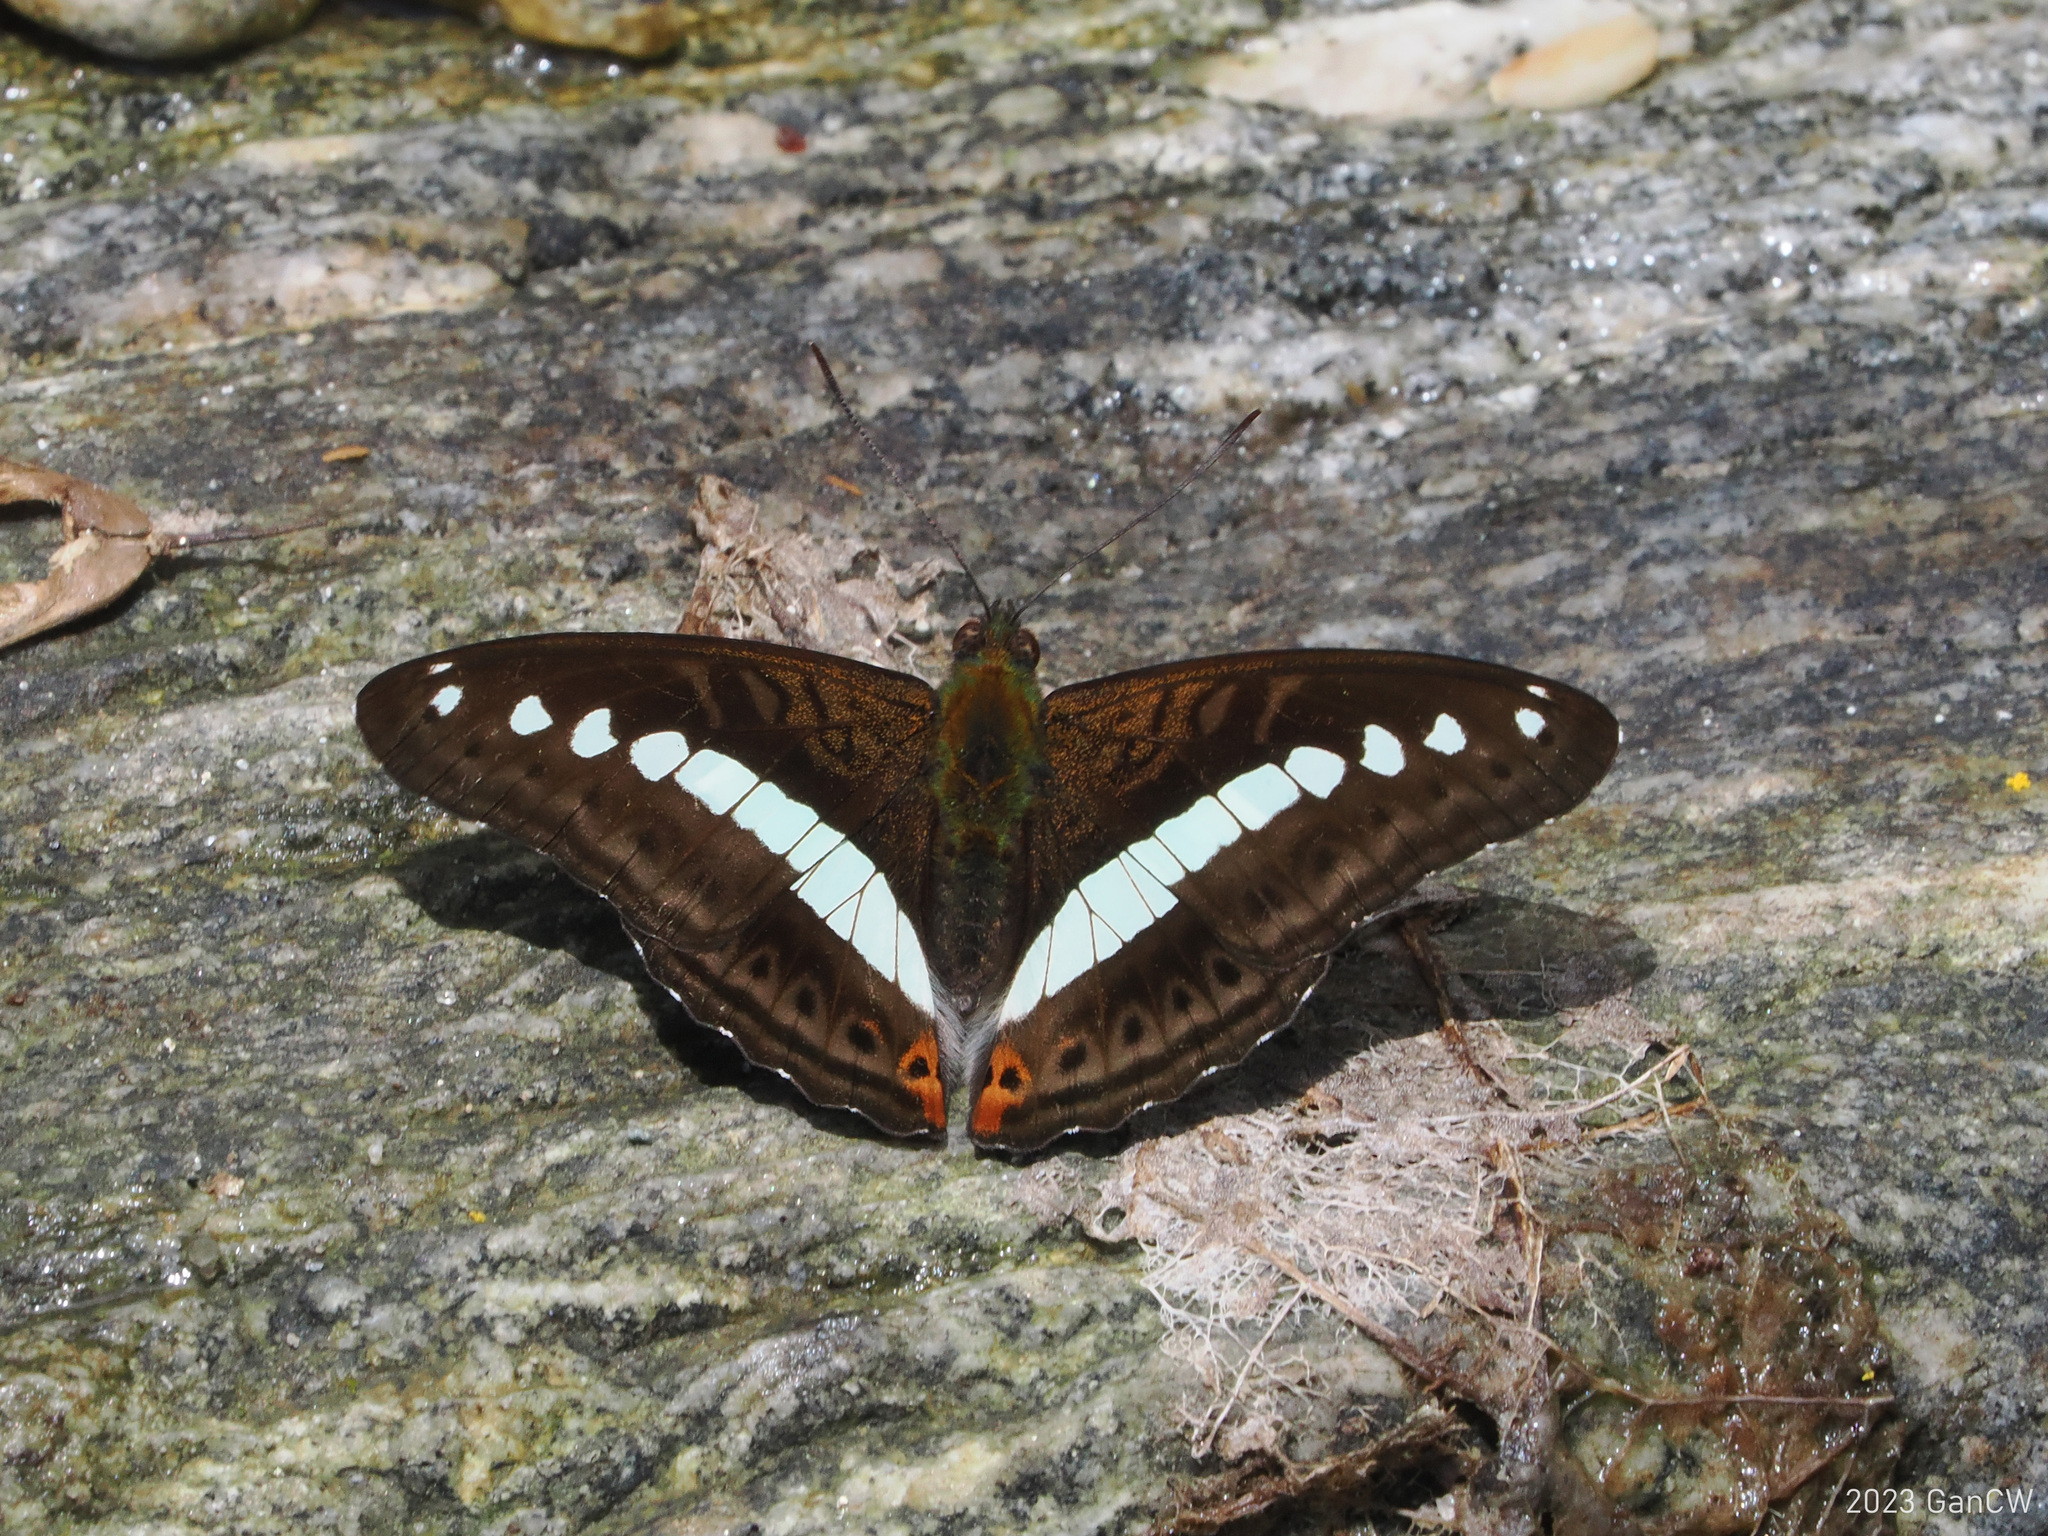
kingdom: Animalia
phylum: Arthropoda
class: Insecta
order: Lepidoptera
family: Nymphalidae
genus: Limenitis
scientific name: Limenitis Sumalia daraxa
